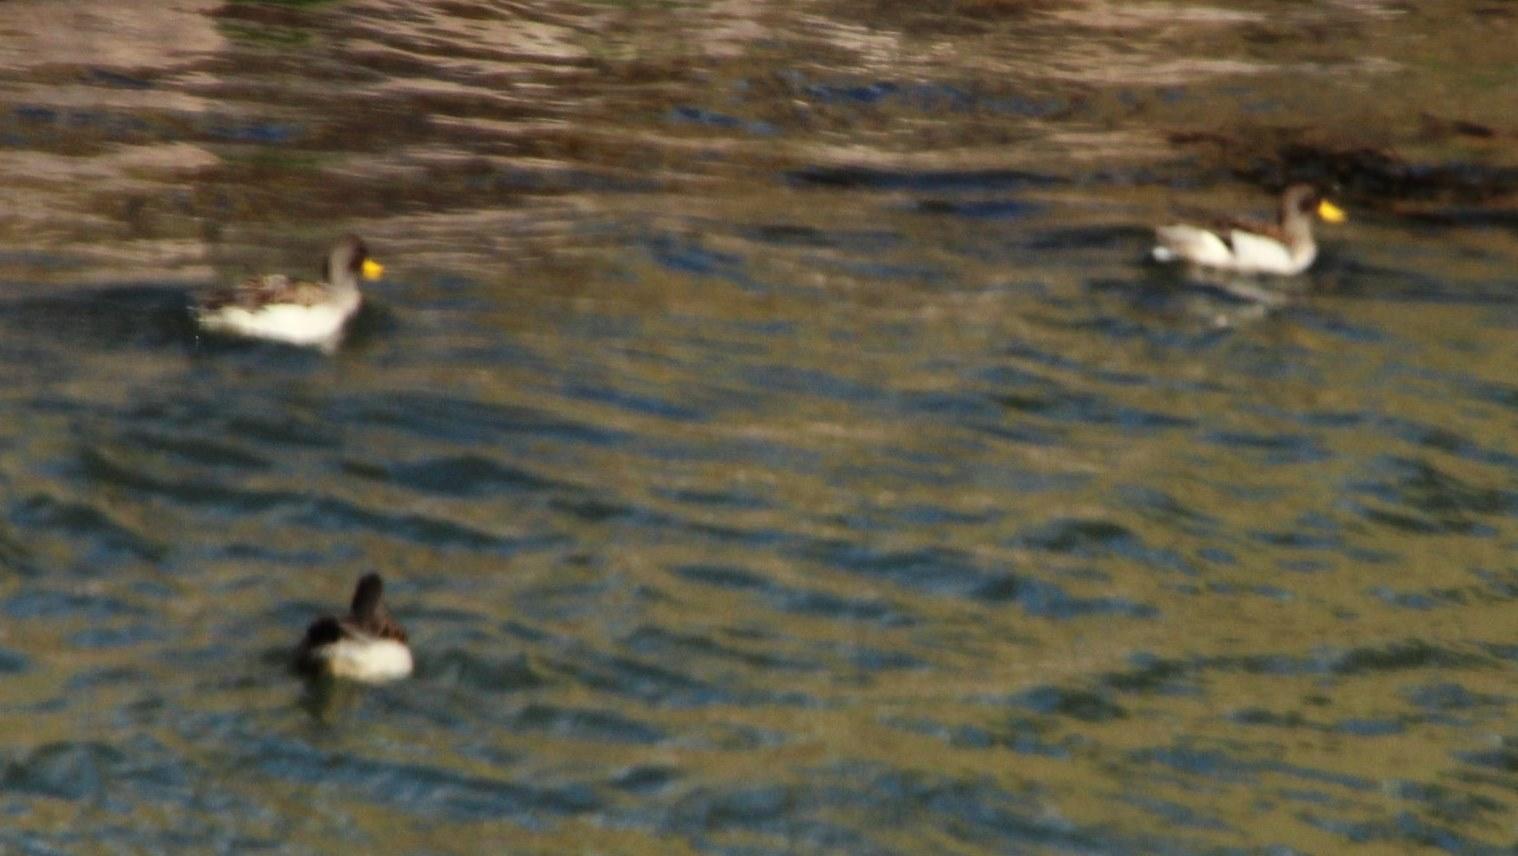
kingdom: Animalia
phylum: Chordata
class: Aves
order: Anseriformes
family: Anatidae
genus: Anas
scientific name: Anas flavirostris
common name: Yellow-billed teal
